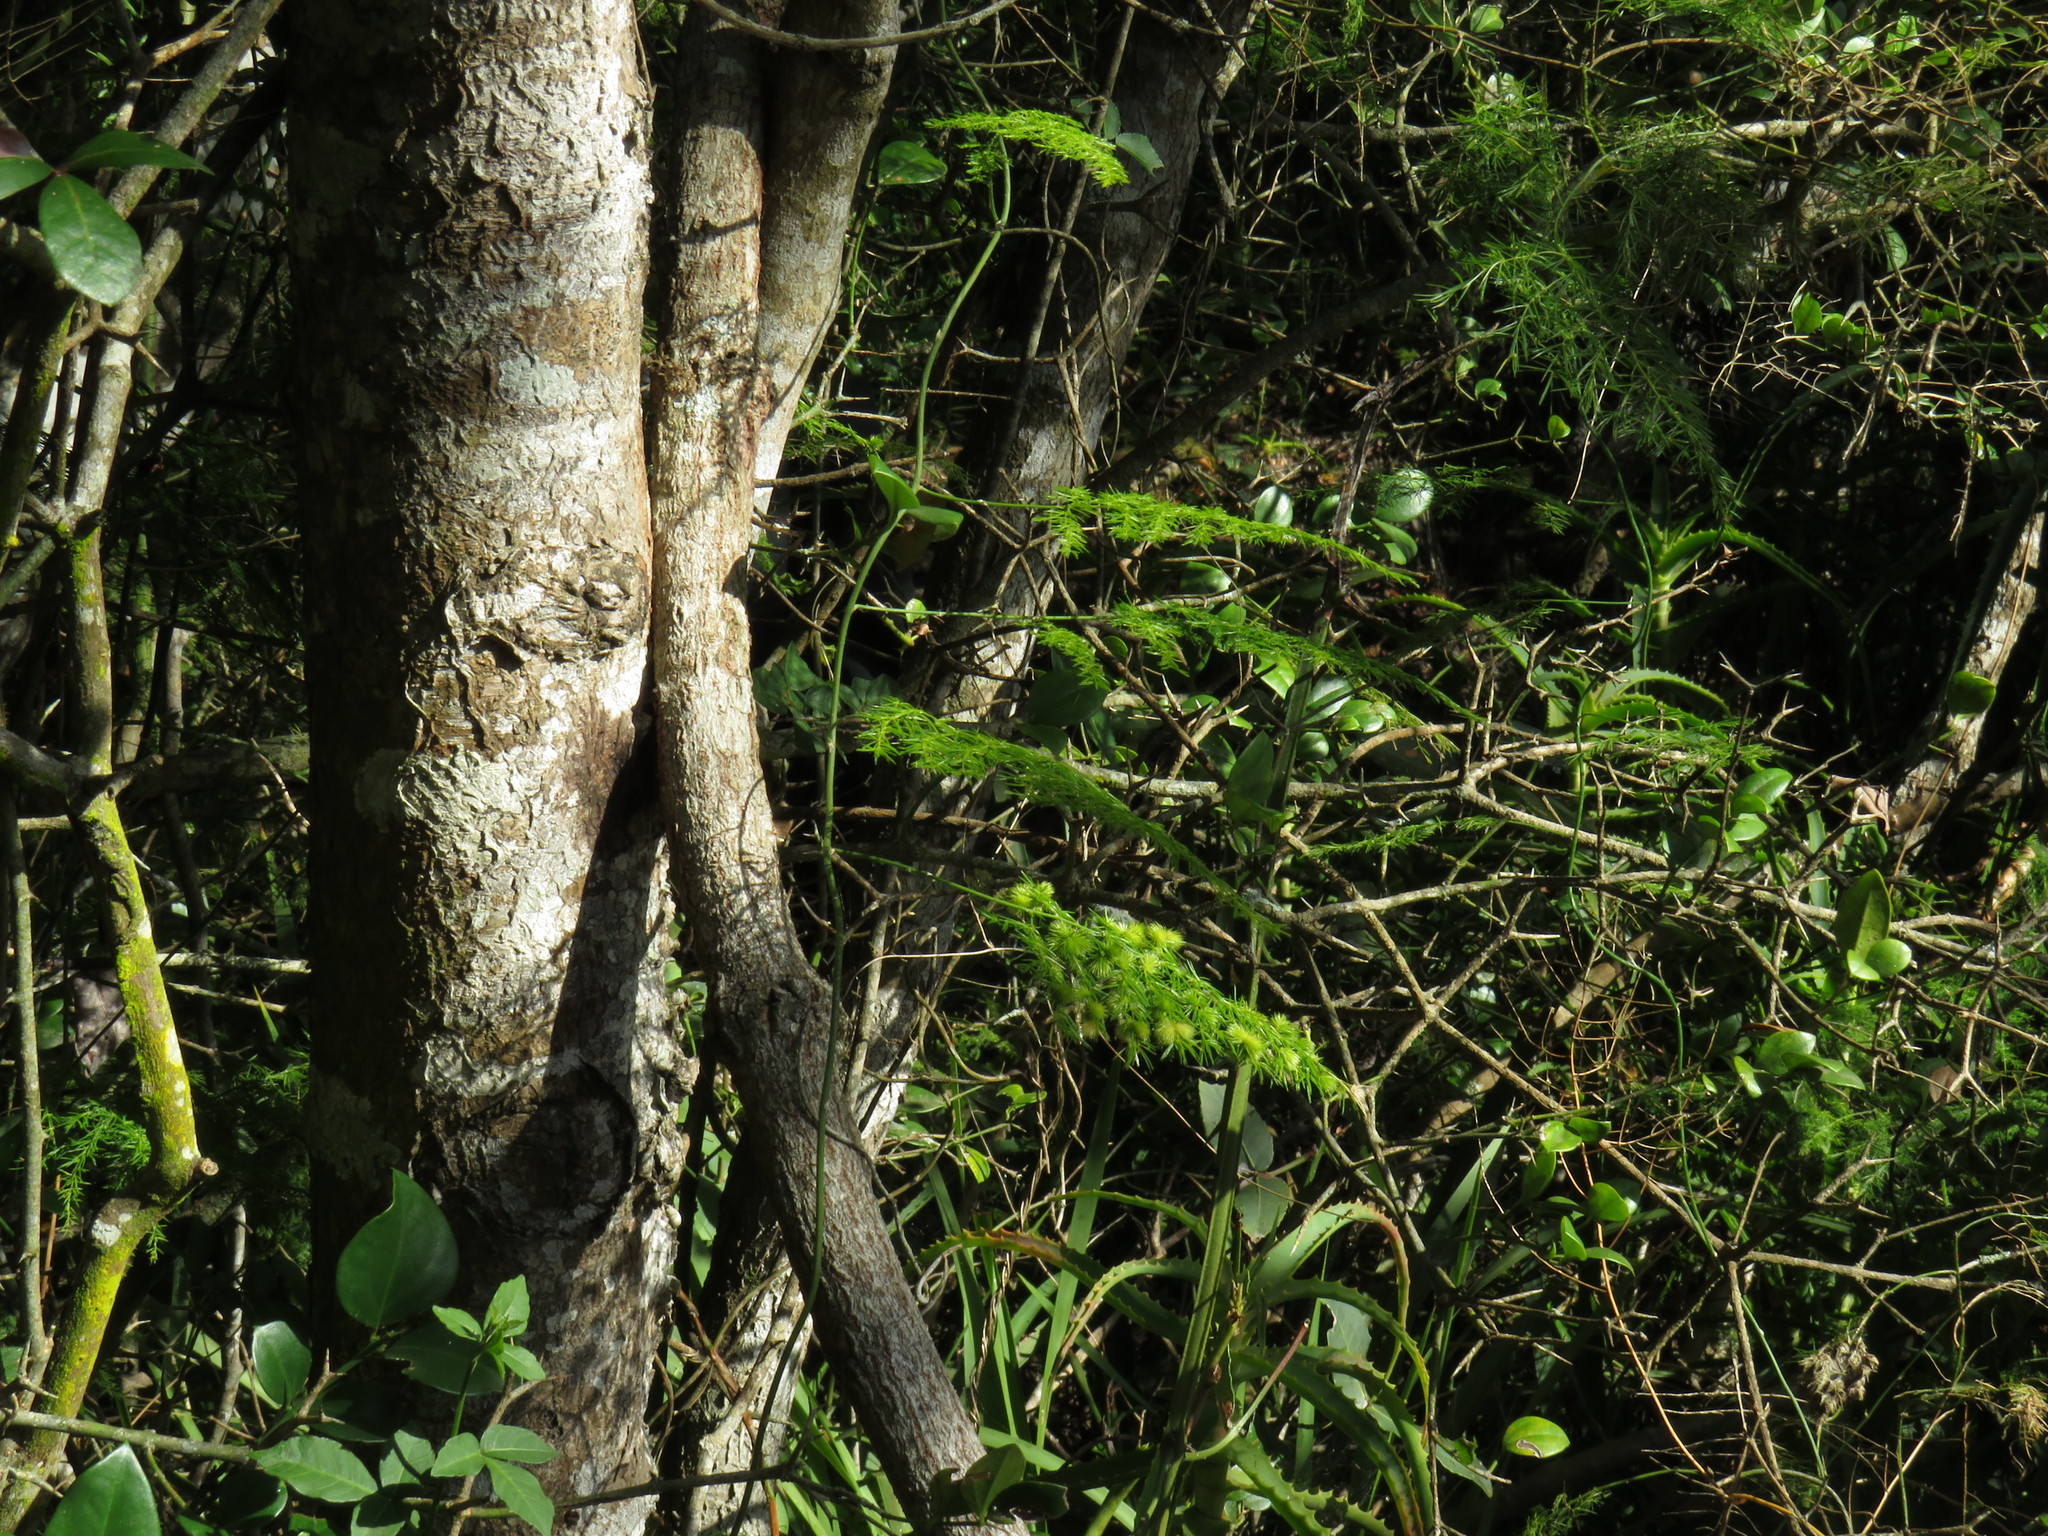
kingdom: Plantae
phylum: Tracheophyta
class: Liliopsida
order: Asparagales
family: Asparagaceae
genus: Asparagus
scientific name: Asparagus setaceus
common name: Common asparagus fern
